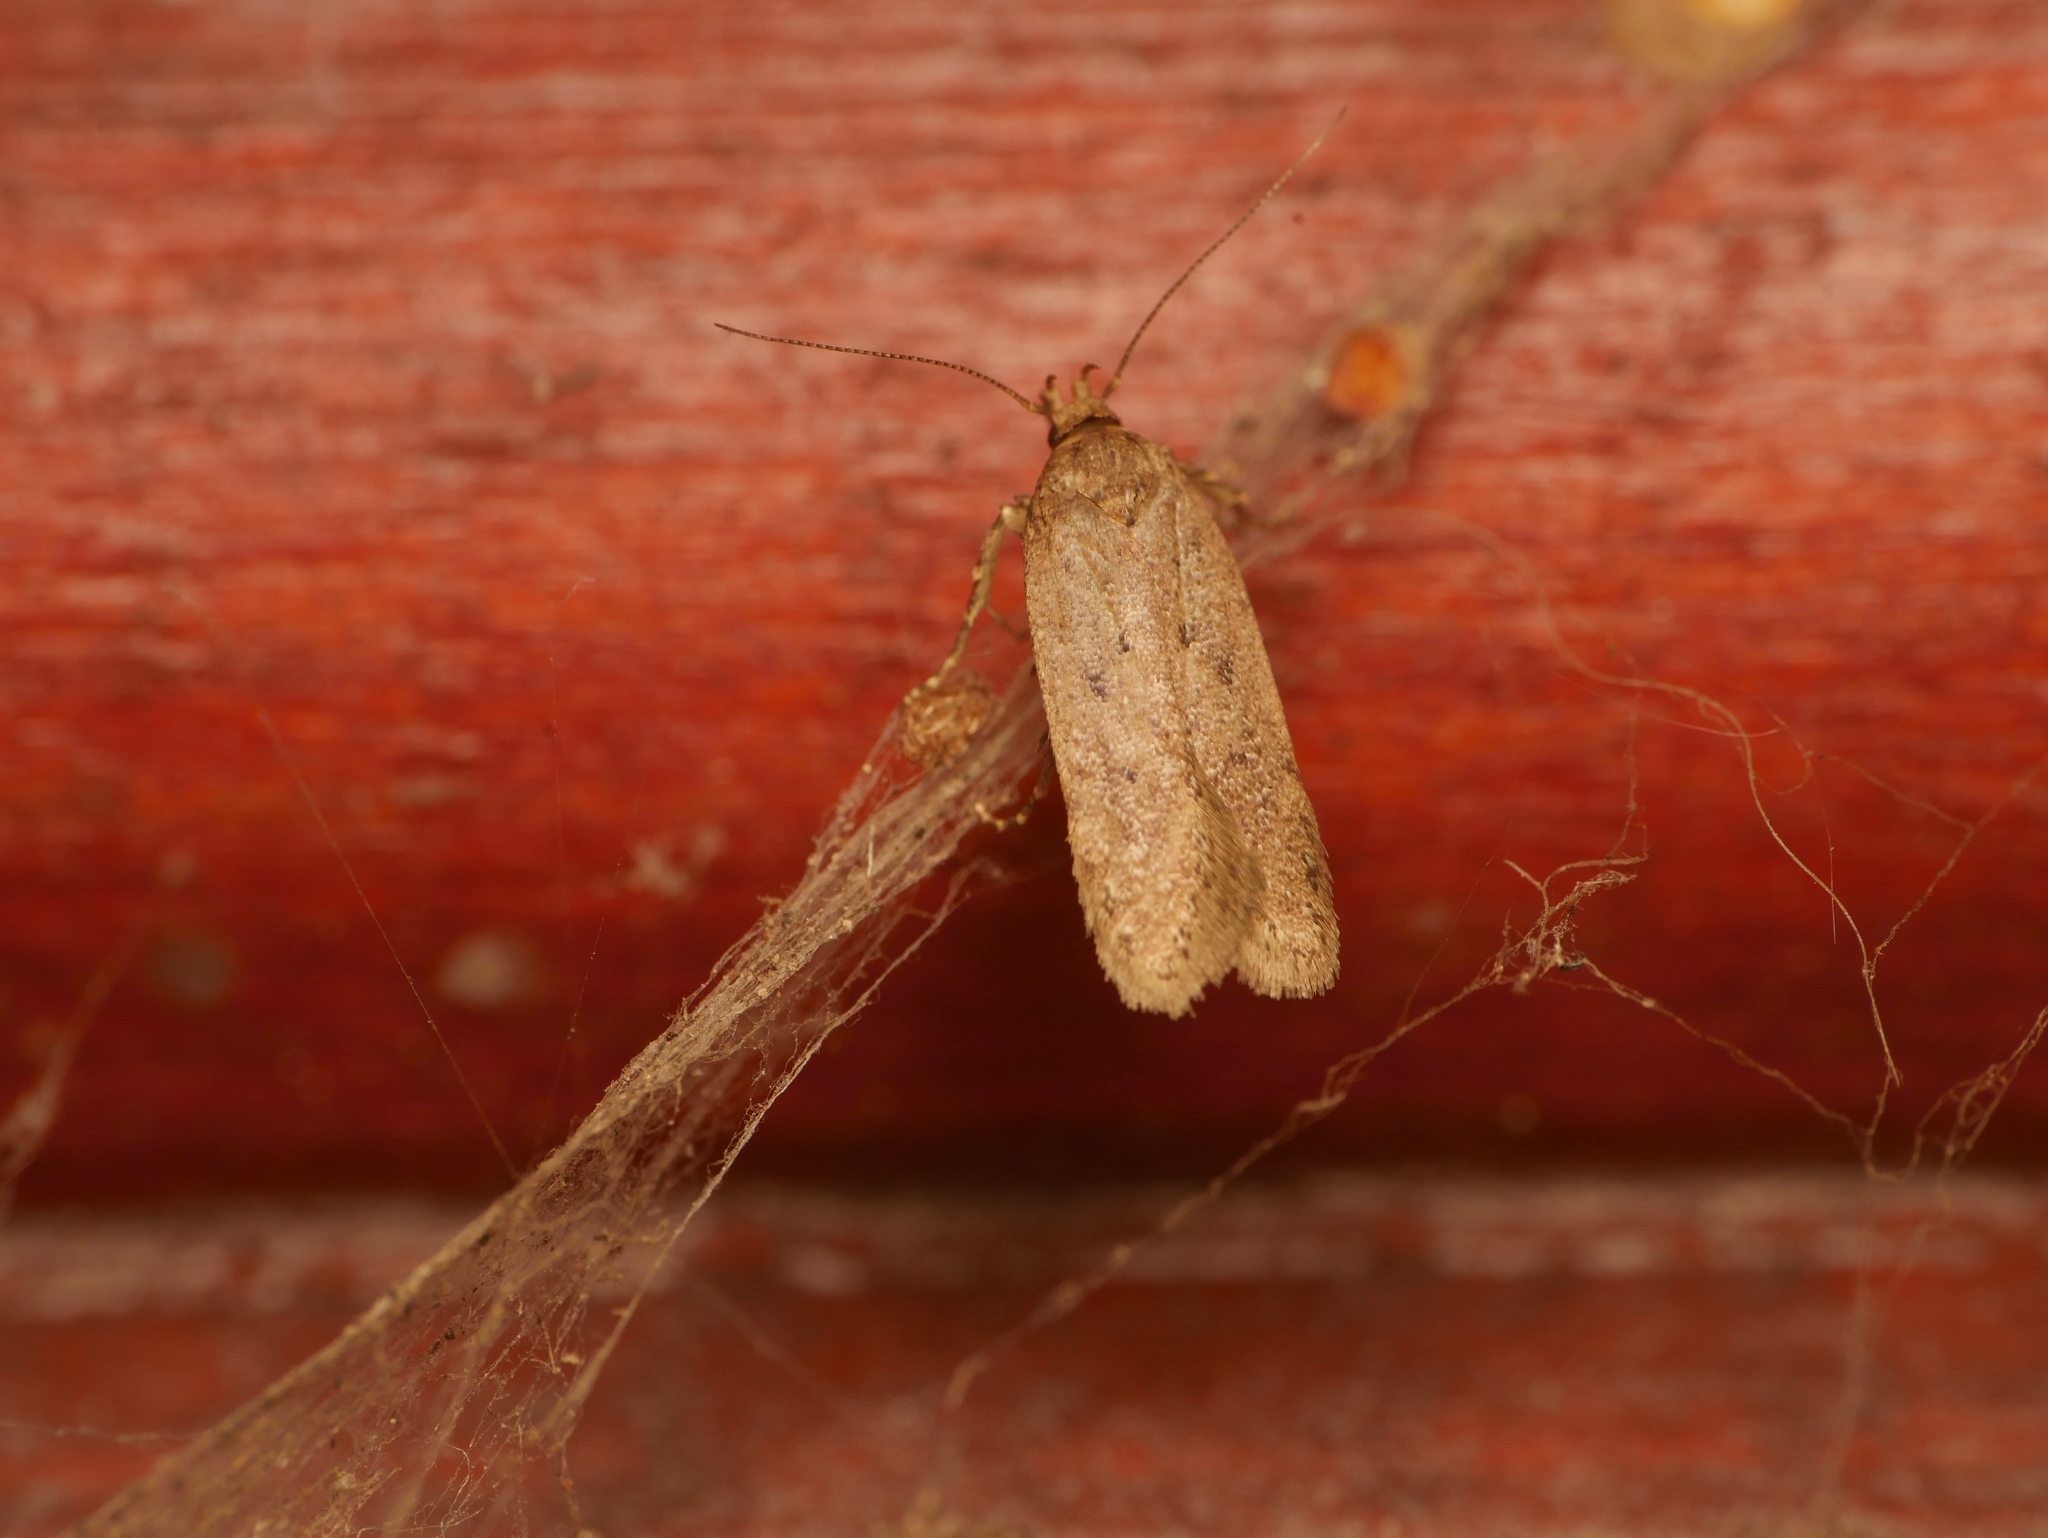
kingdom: Animalia
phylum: Arthropoda
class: Insecta
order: Lepidoptera
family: Oecophoridae
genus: Hofmannophila
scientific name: Hofmannophila pseudospretella
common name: Brown house moth
